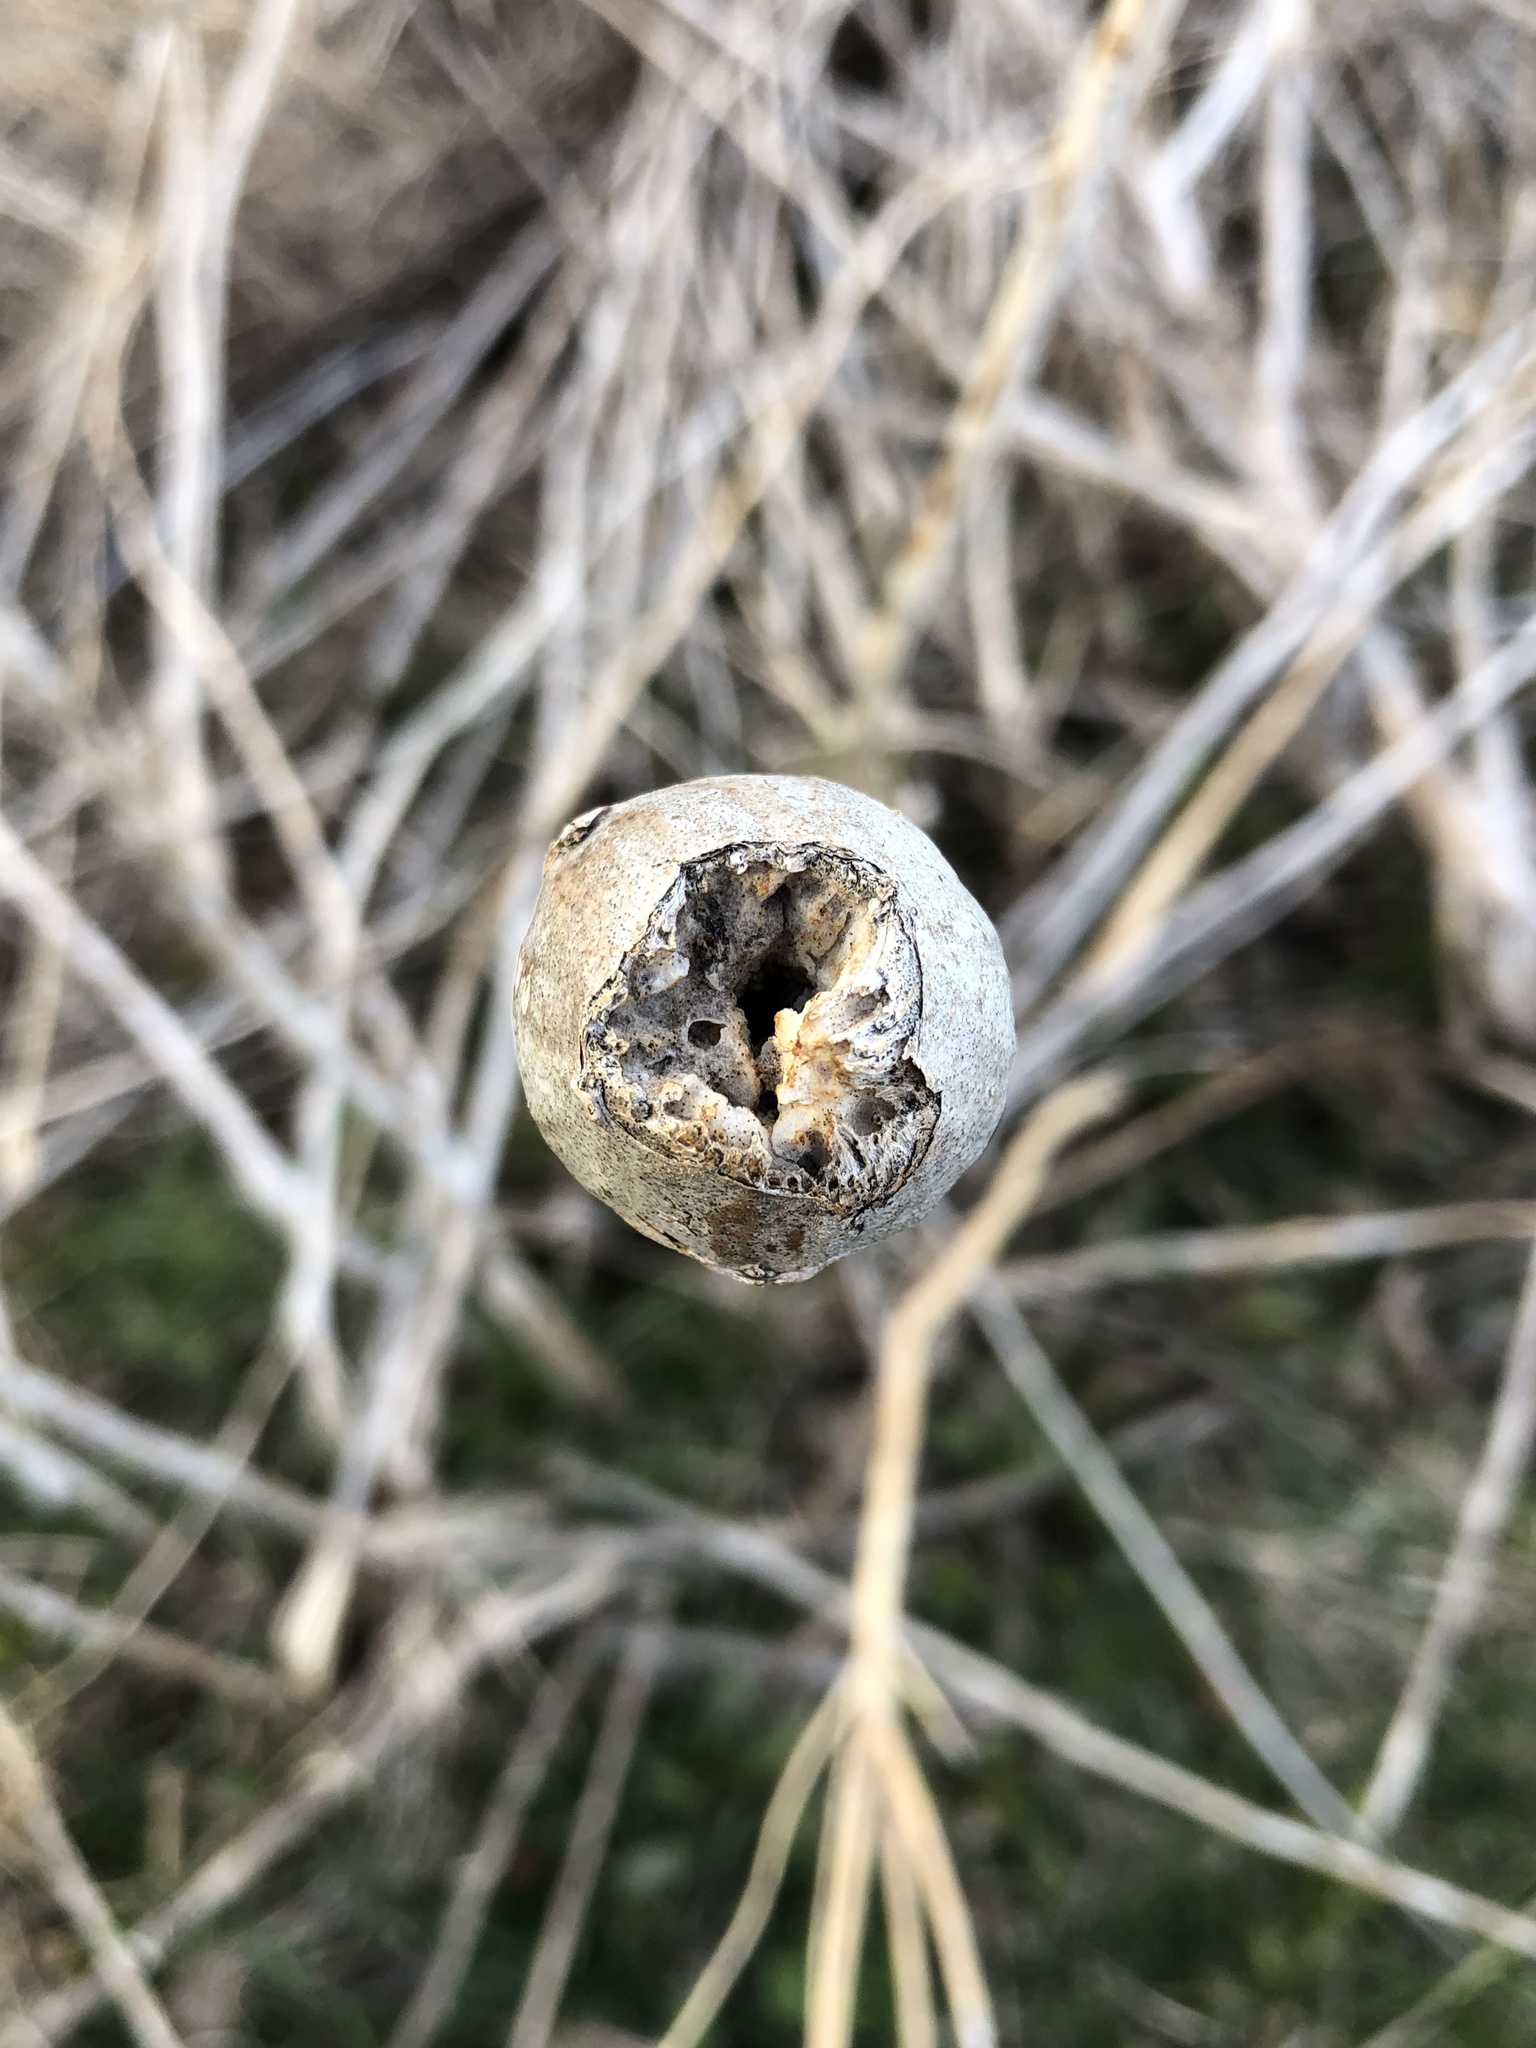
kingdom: Animalia
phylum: Arthropoda
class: Insecta
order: Diptera
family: Tephritidae
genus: Eurosta
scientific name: Eurosta solidaginis
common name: Goldenrod gall fly
